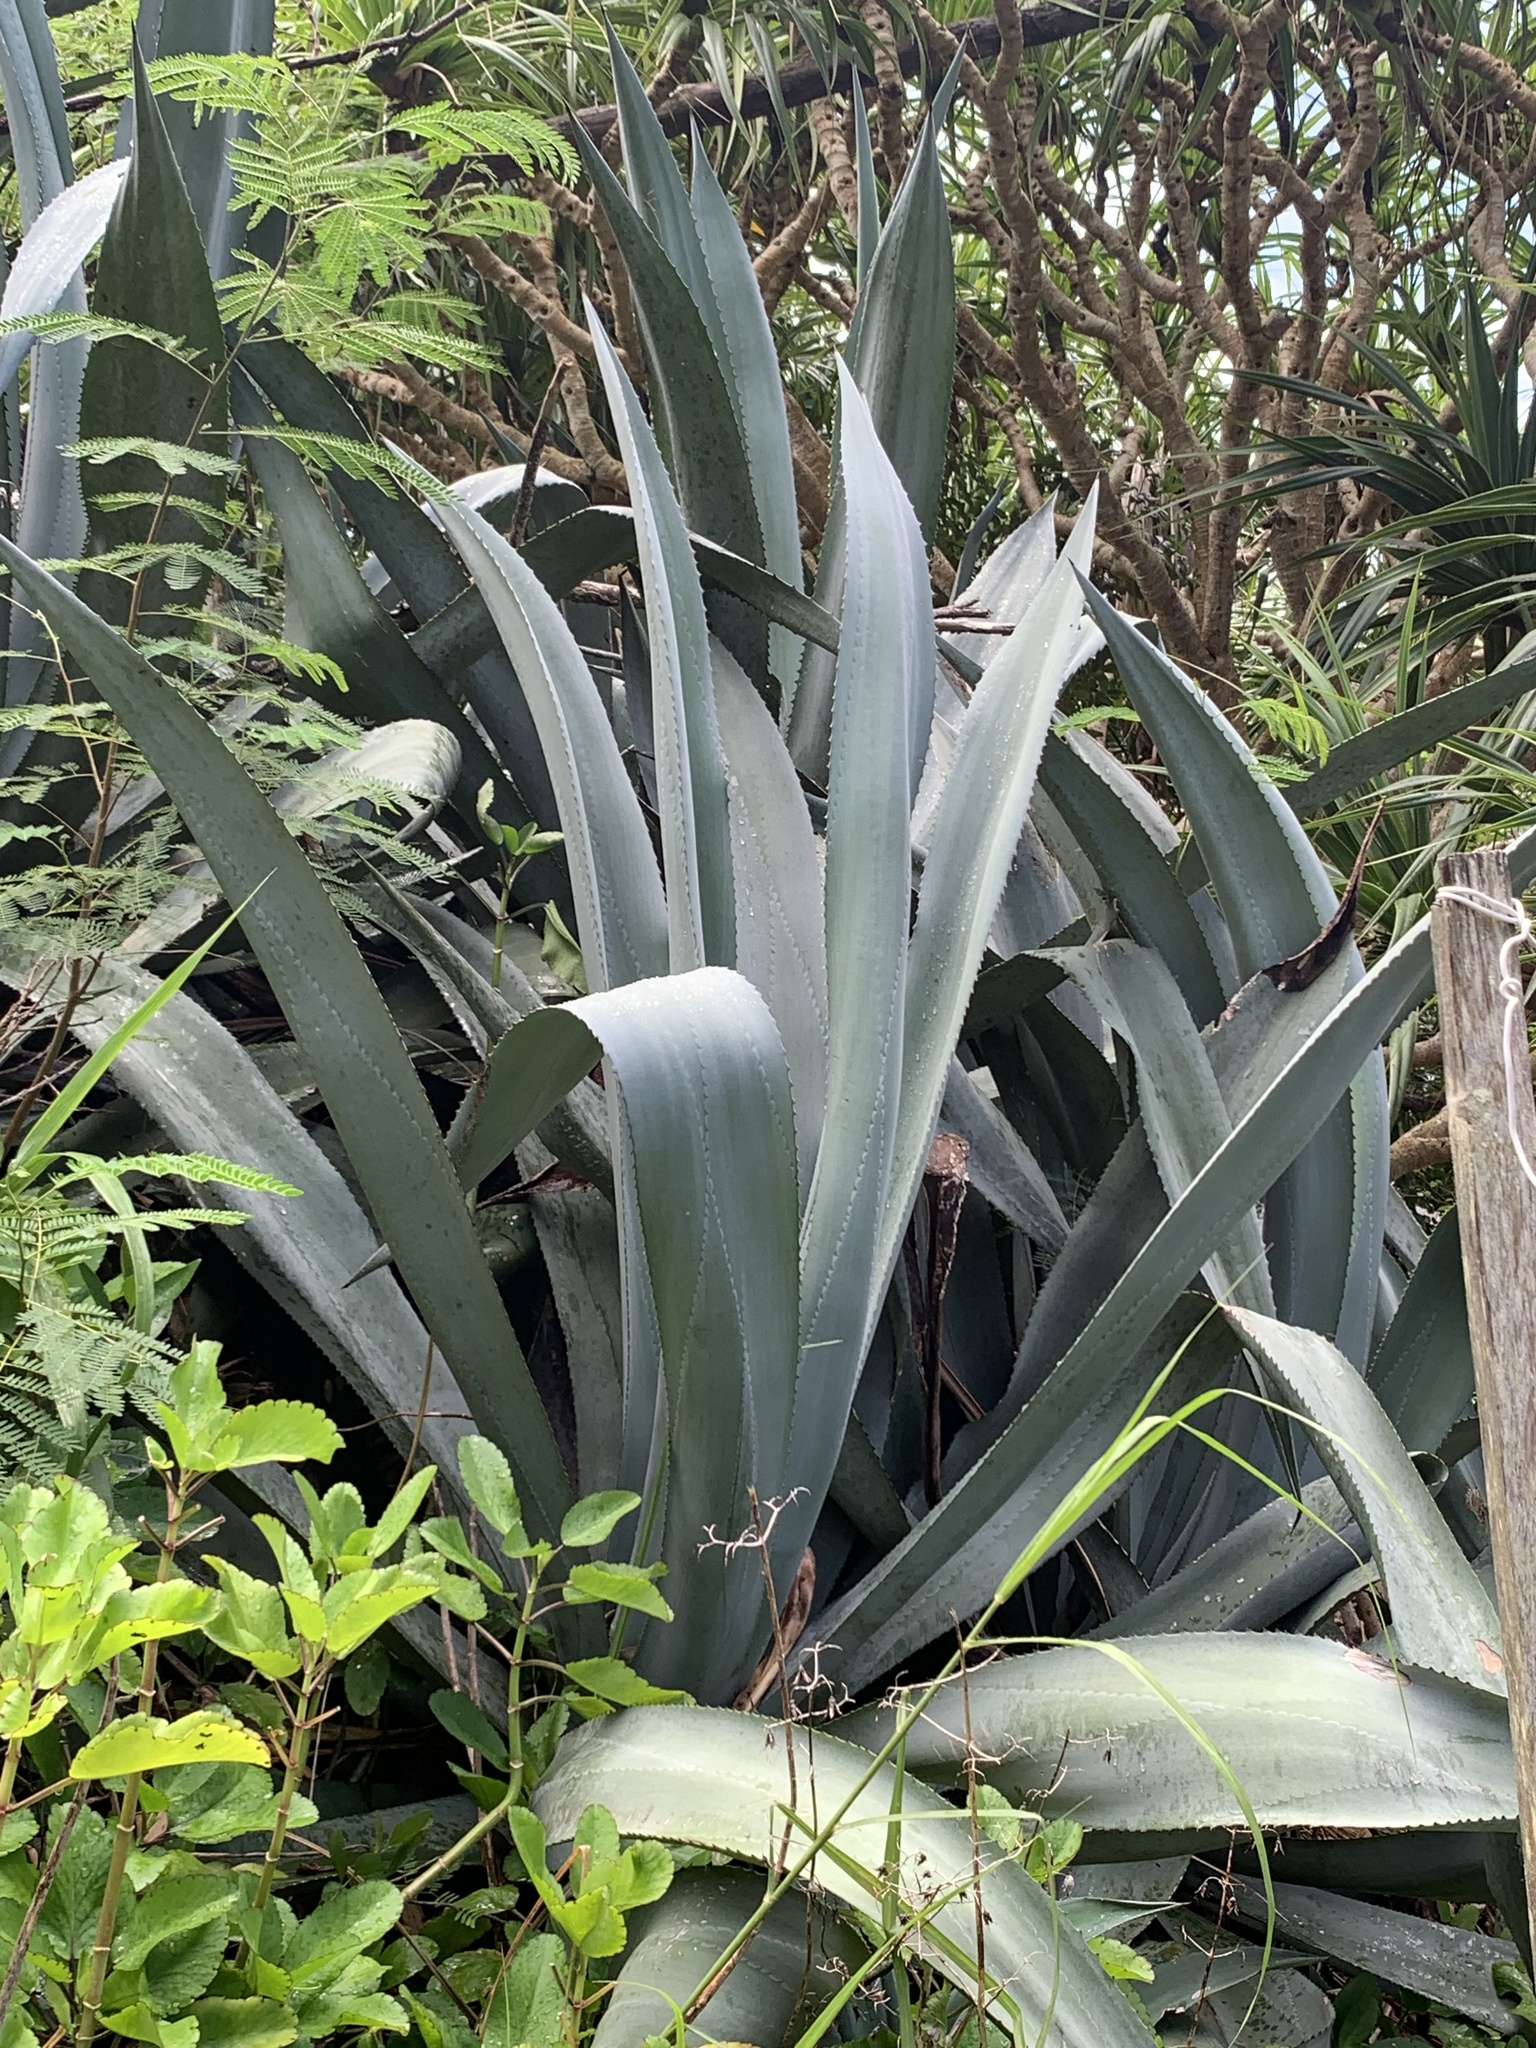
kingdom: Plantae
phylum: Tracheophyta
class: Liliopsida
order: Asparagales
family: Asparagaceae
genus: Agave
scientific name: Agave americana
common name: Centuryplant
